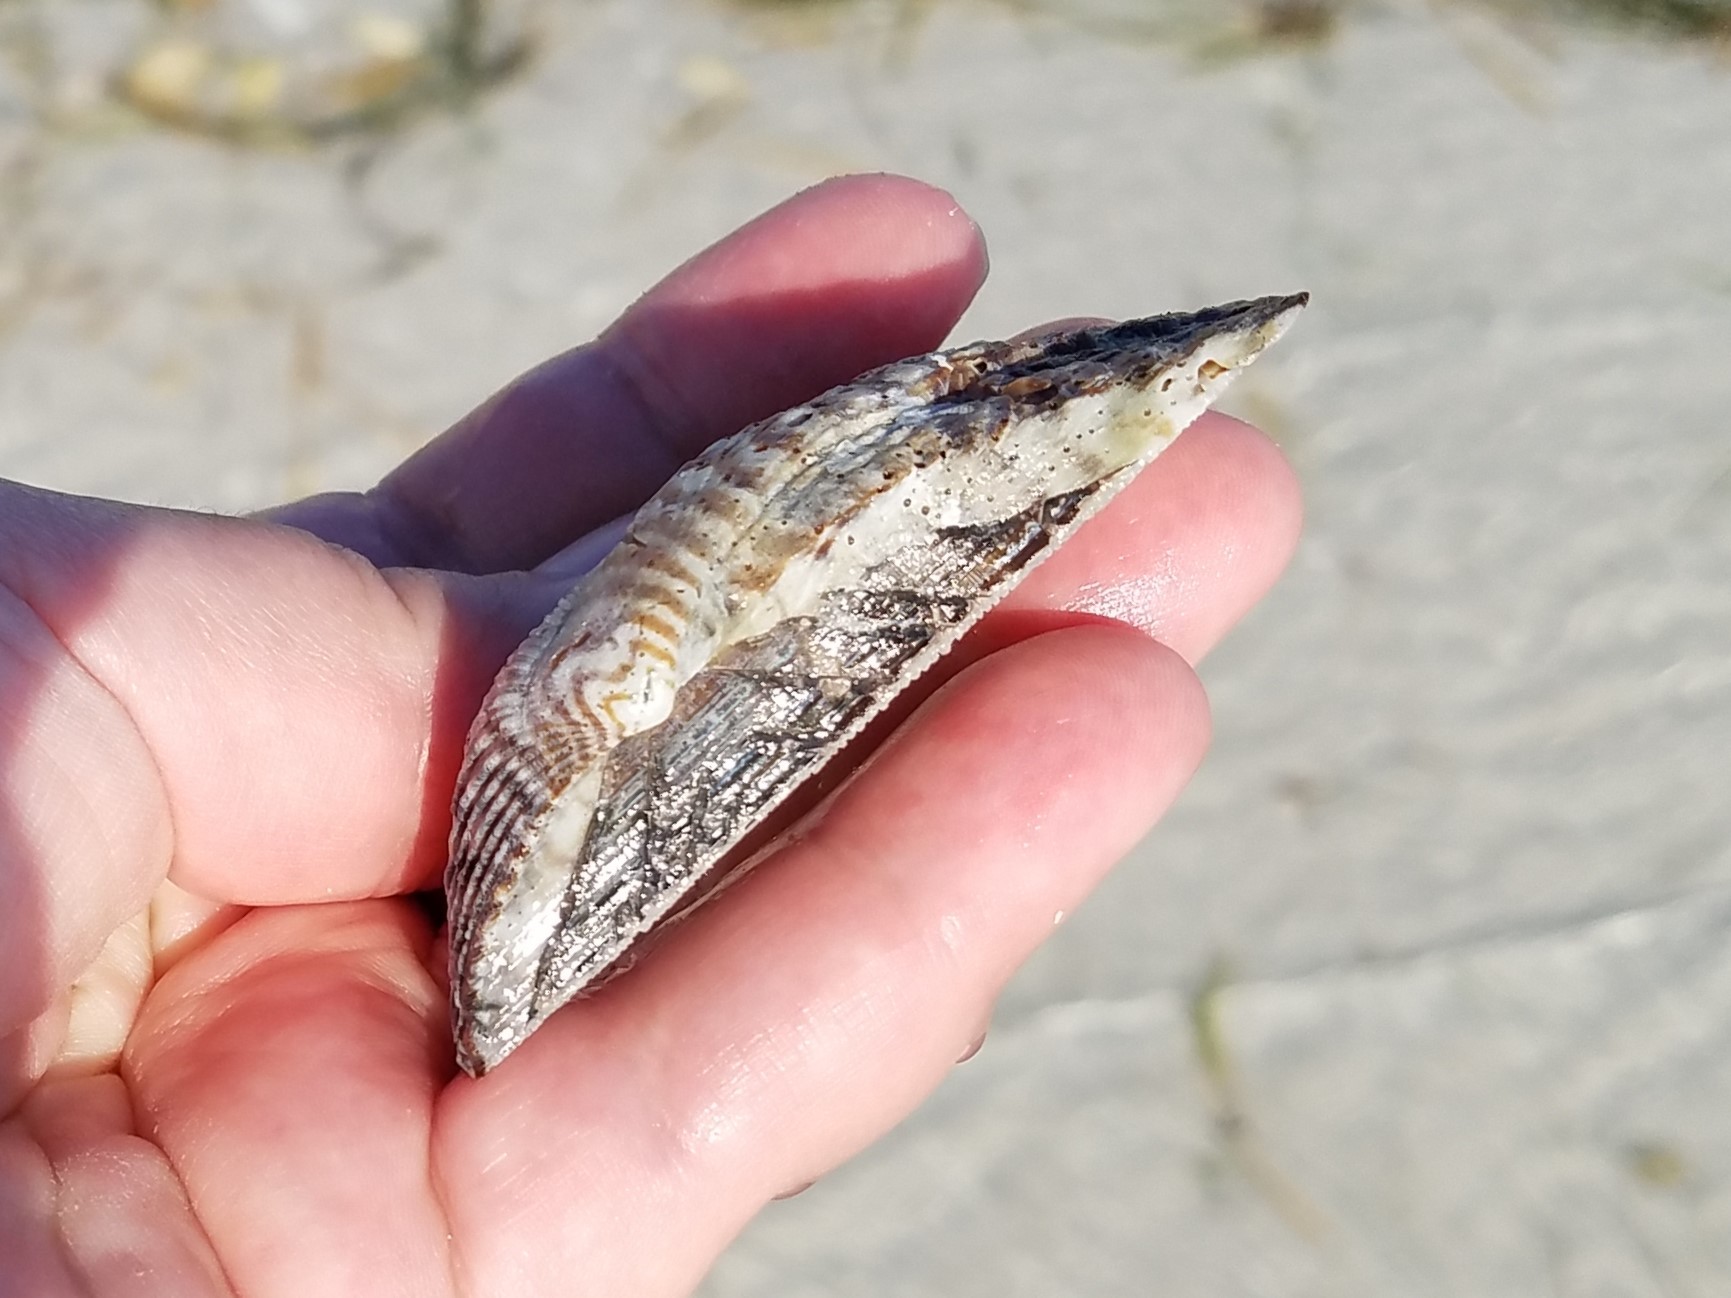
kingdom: Animalia
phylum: Mollusca
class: Bivalvia
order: Arcida
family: Arcidae
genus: Arca
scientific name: Arca zebra
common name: Atlantic turkey wing
